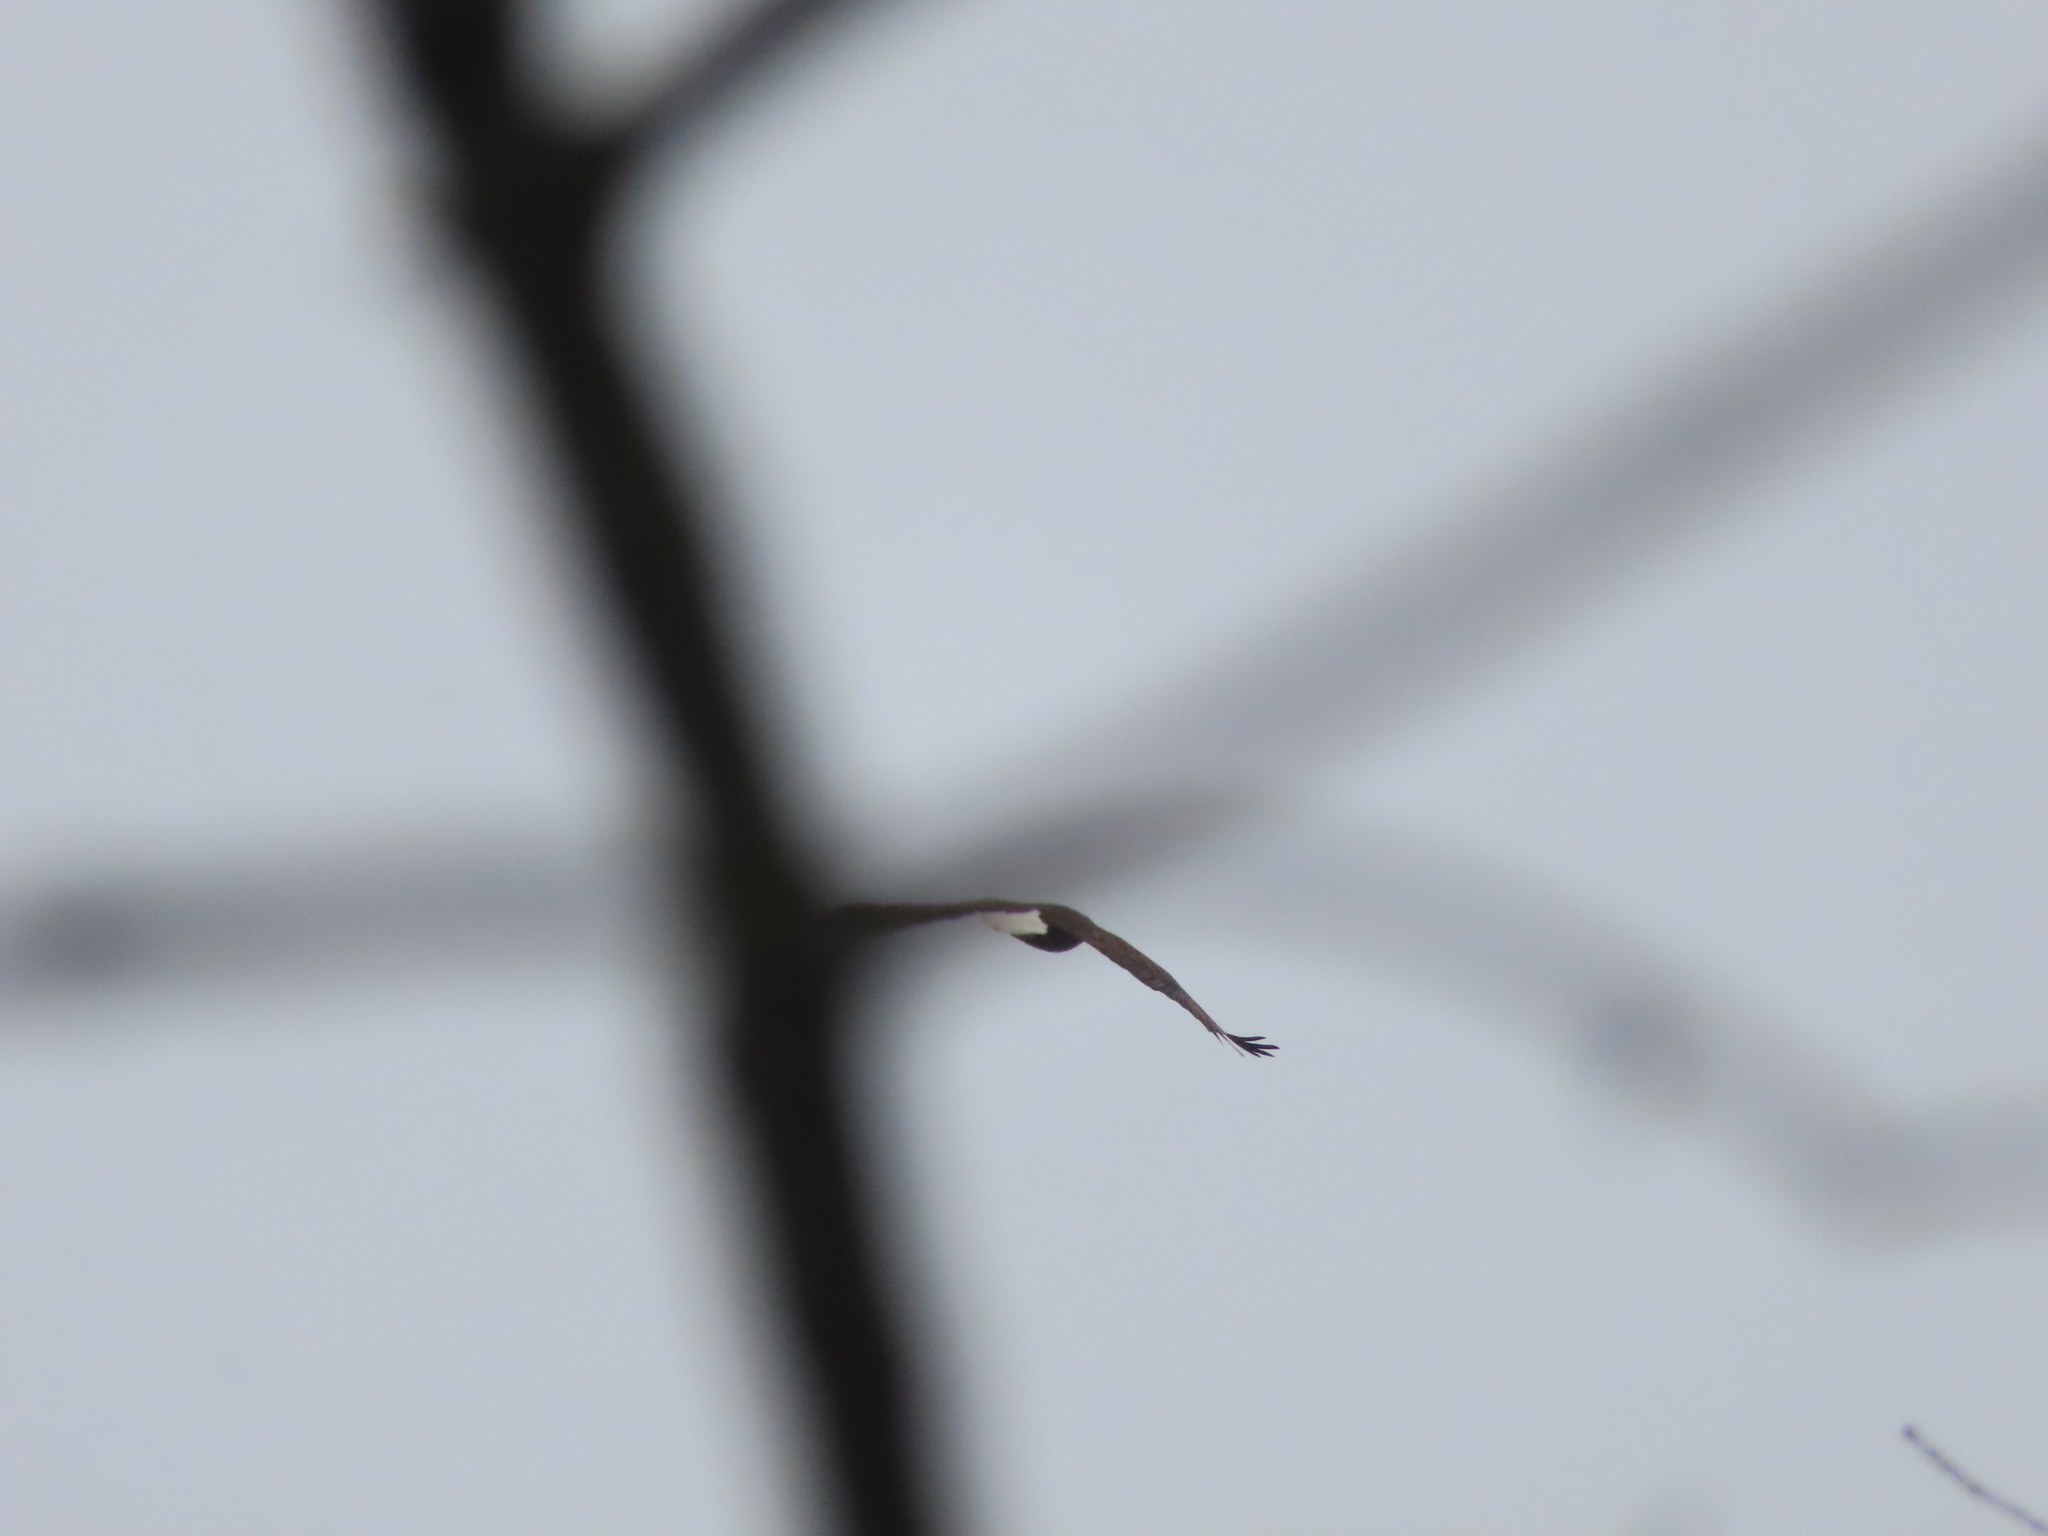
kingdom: Animalia
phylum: Chordata
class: Aves
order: Accipitriformes
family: Accipitridae
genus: Haliaeetus
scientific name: Haliaeetus leucocephalus
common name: Bald eagle
